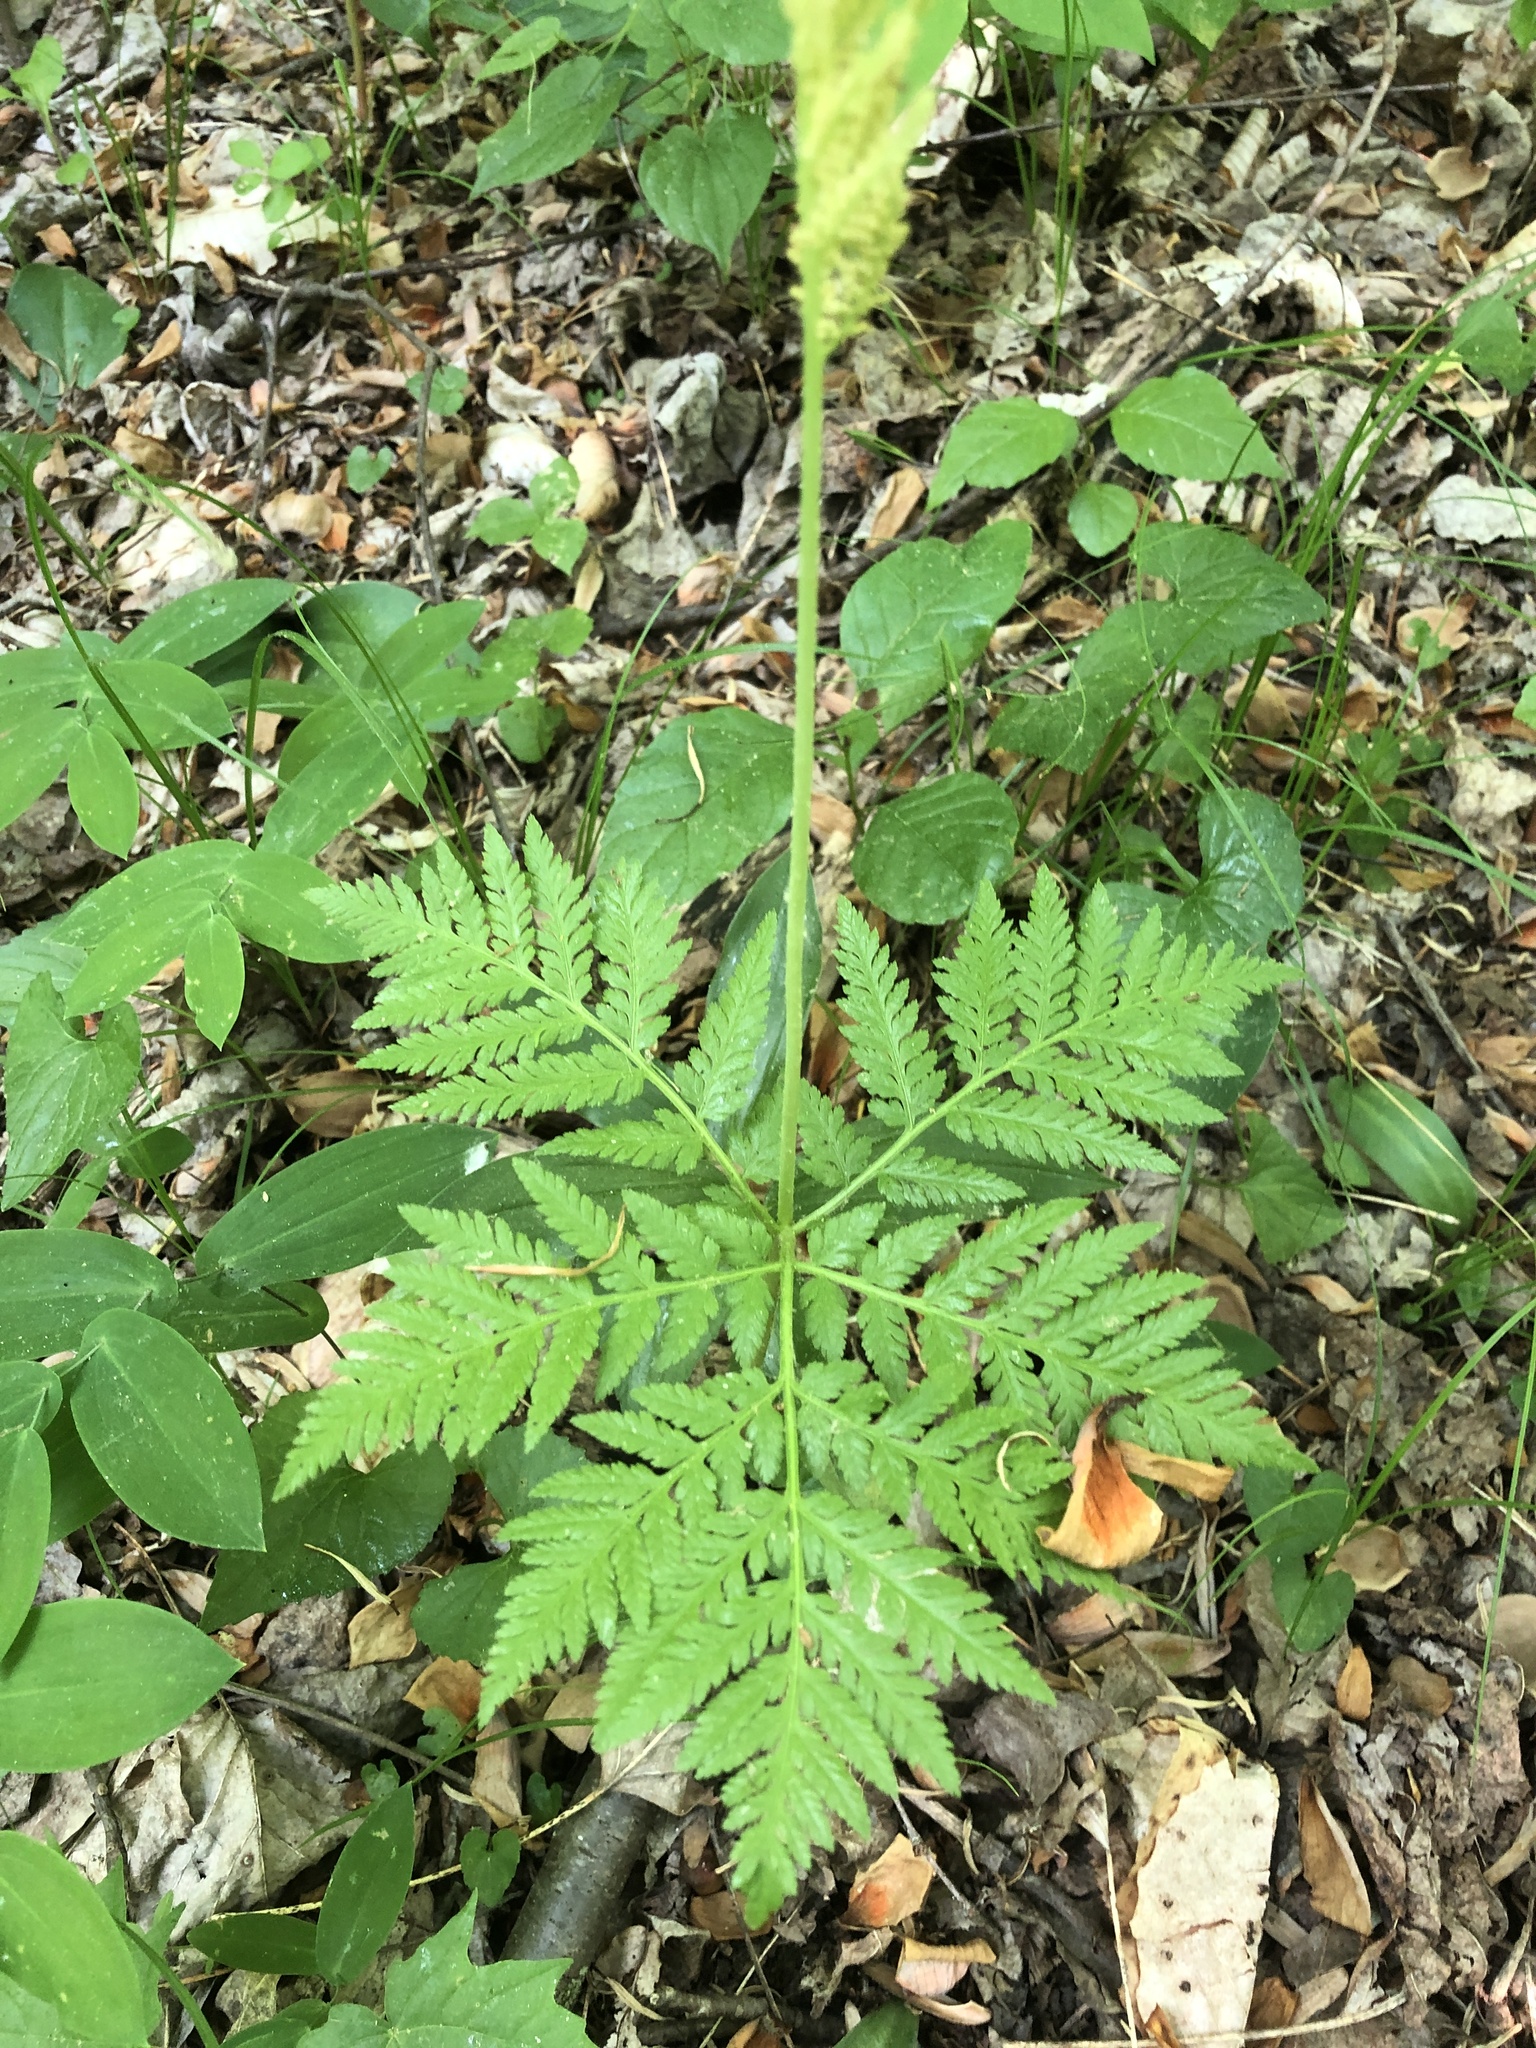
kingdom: Plantae
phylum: Tracheophyta
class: Polypodiopsida
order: Ophioglossales
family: Ophioglossaceae
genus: Botrypus
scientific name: Botrypus virginianus
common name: Common grapefern
